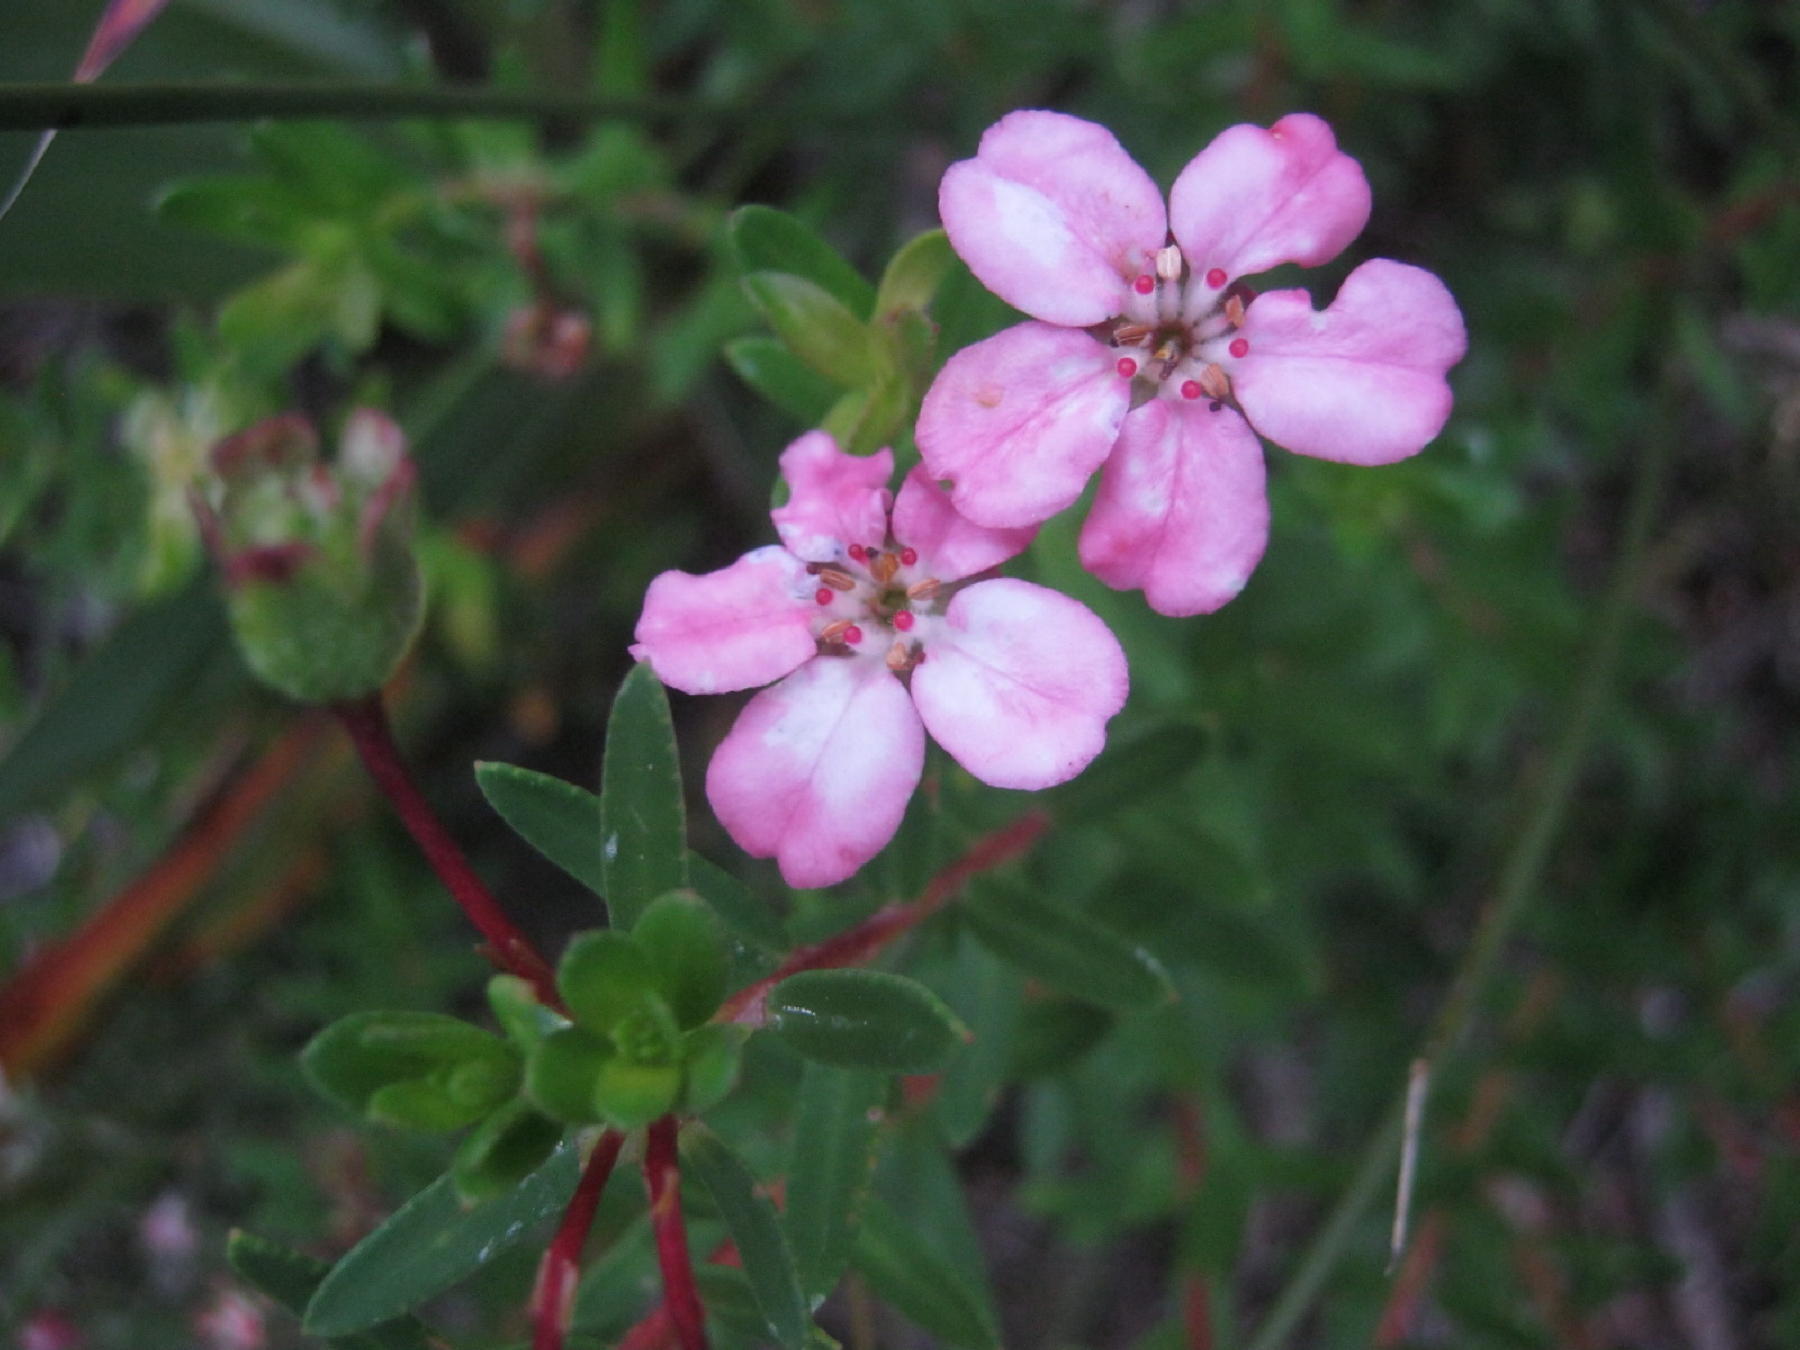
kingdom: Plantae
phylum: Tracheophyta
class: Magnoliopsida
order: Sapindales
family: Rutaceae
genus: Adenandra
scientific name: Adenandra fragrans
